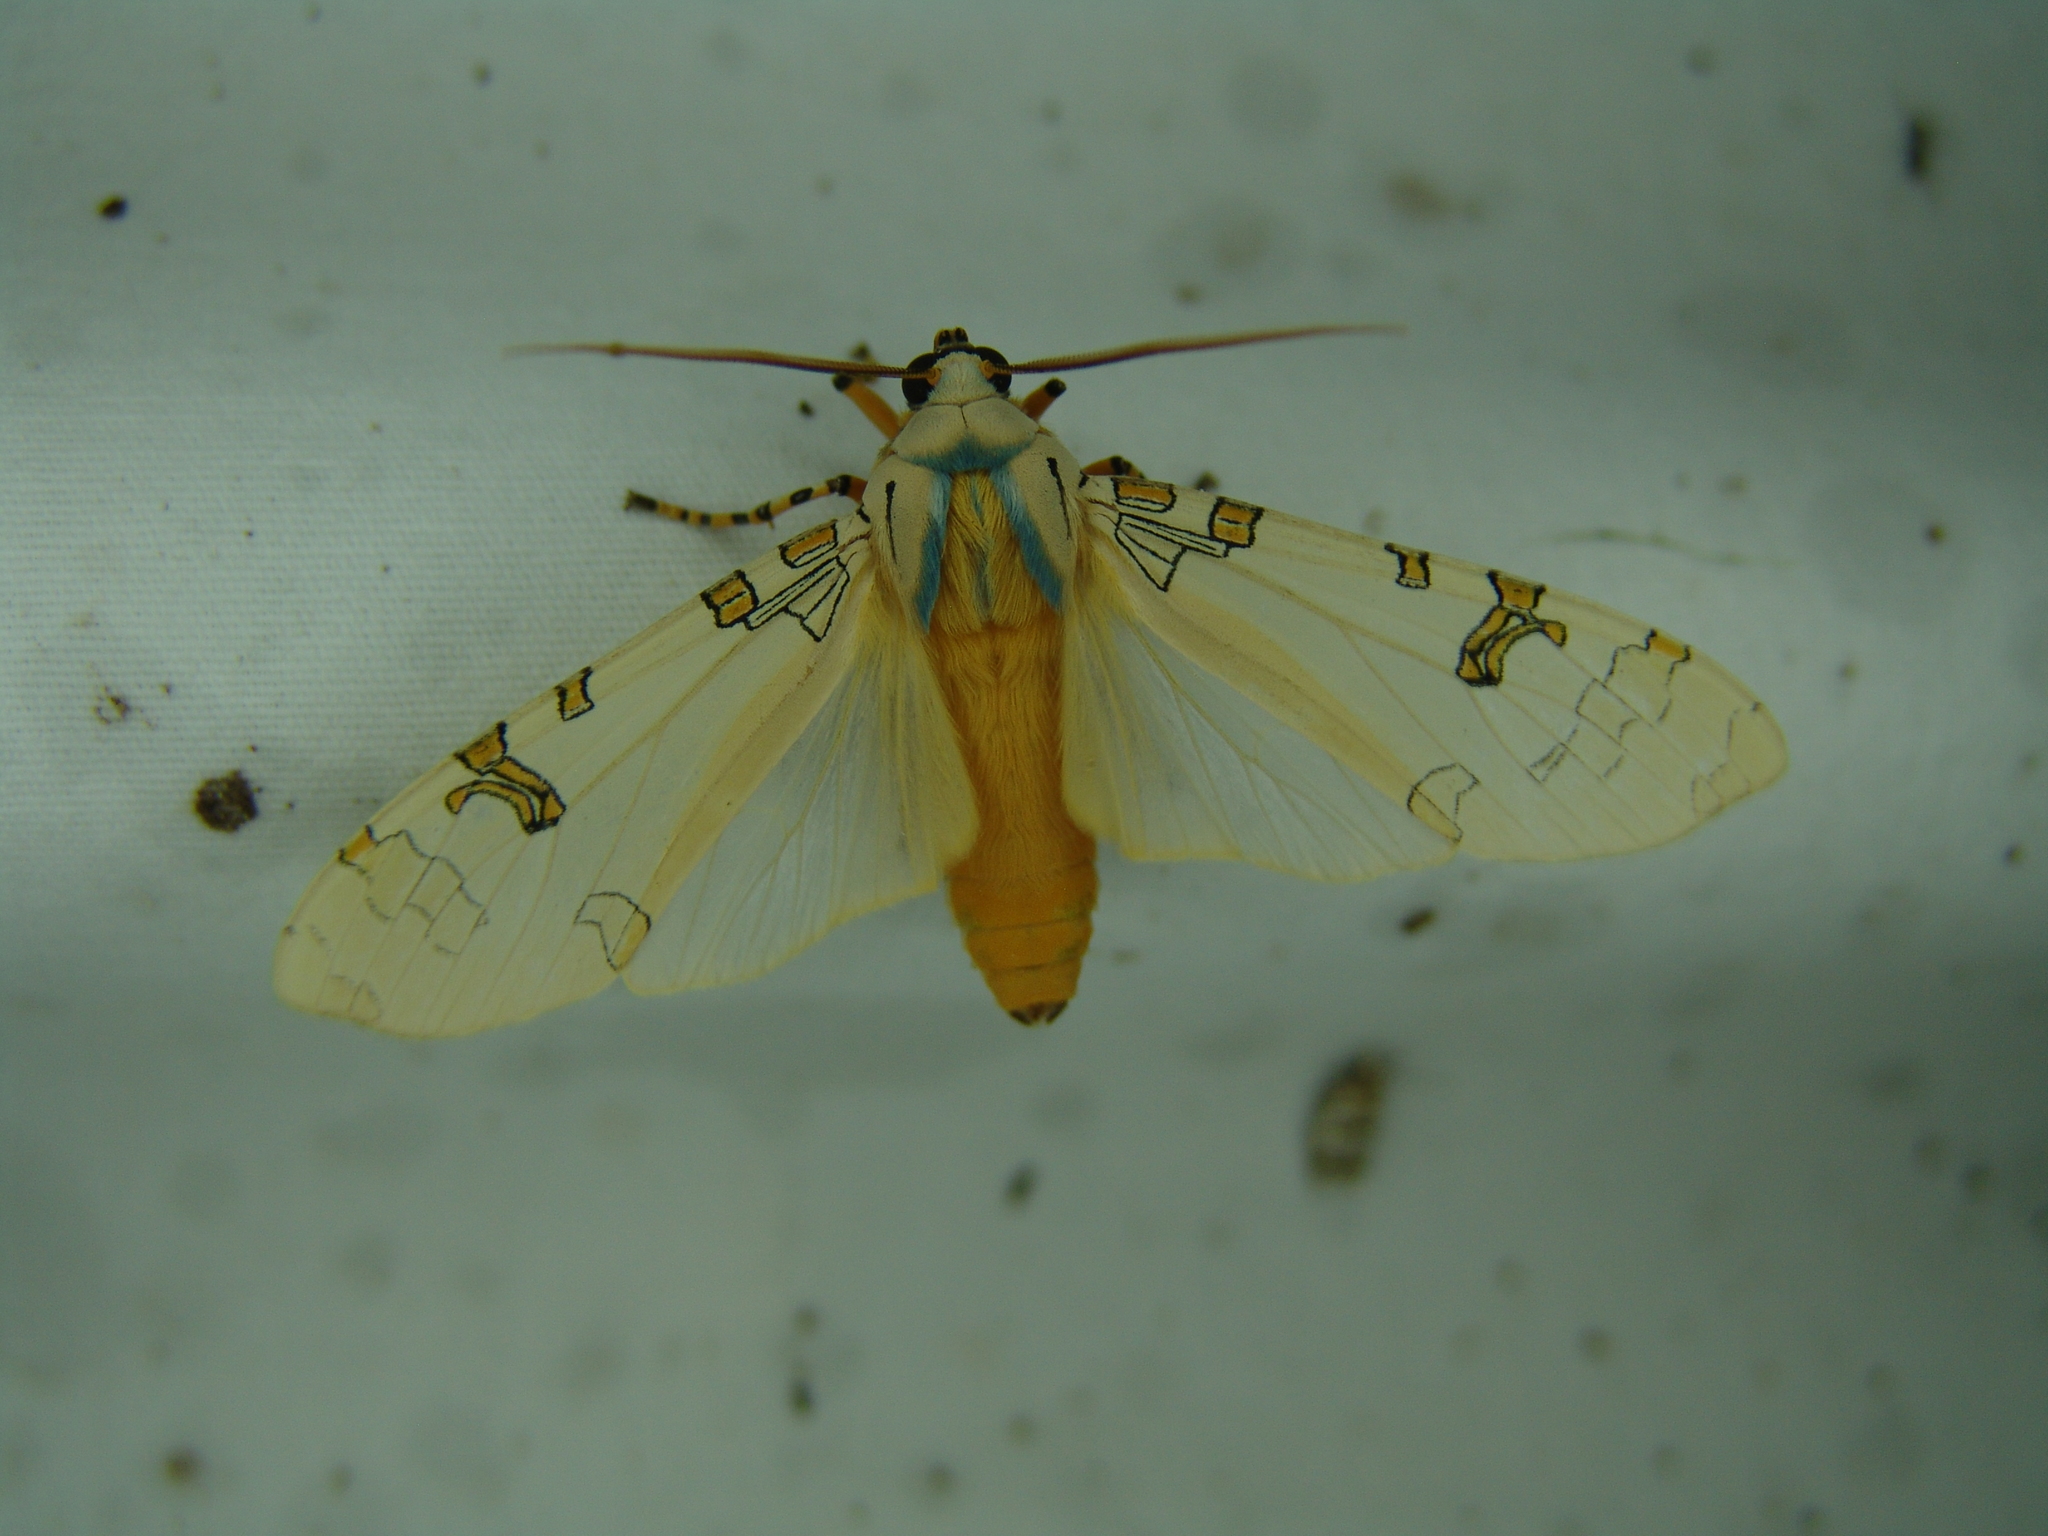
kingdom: Animalia
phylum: Arthropoda
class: Insecta
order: Lepidoptera
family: Erebidae
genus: Halysidota
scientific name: Halysidota davisii
